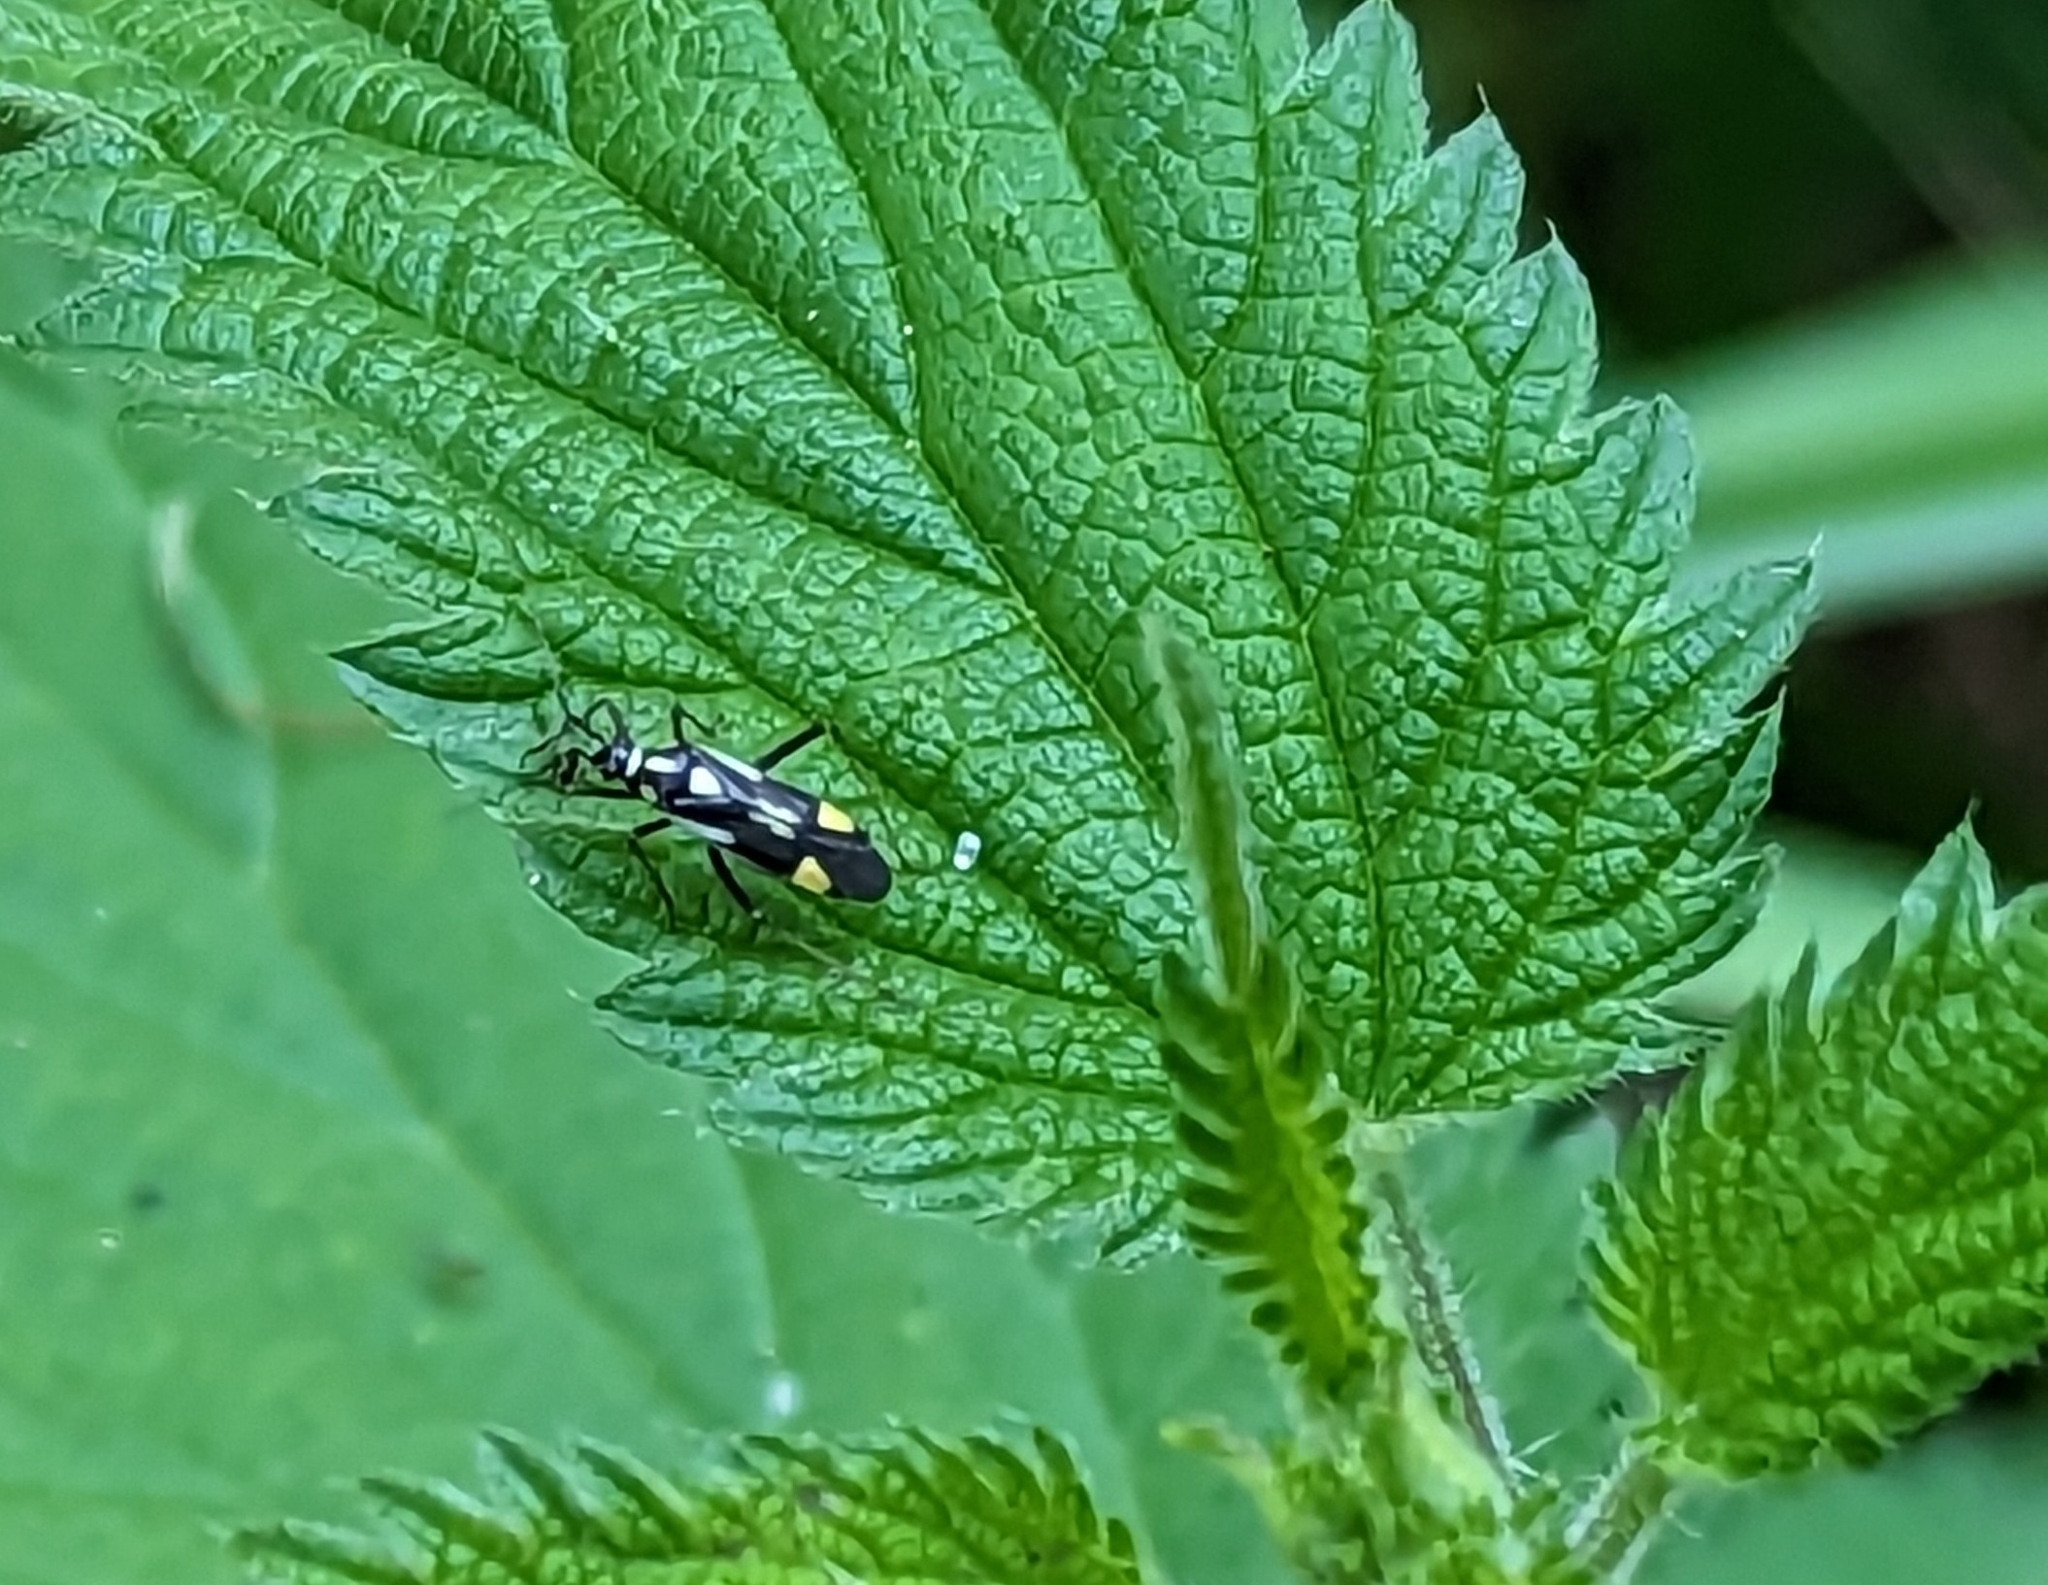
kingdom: Animalia
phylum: Arthropoda
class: Insecta
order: Hemiptera
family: Miridae
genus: Grypocoris
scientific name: Grypocoris stysi
